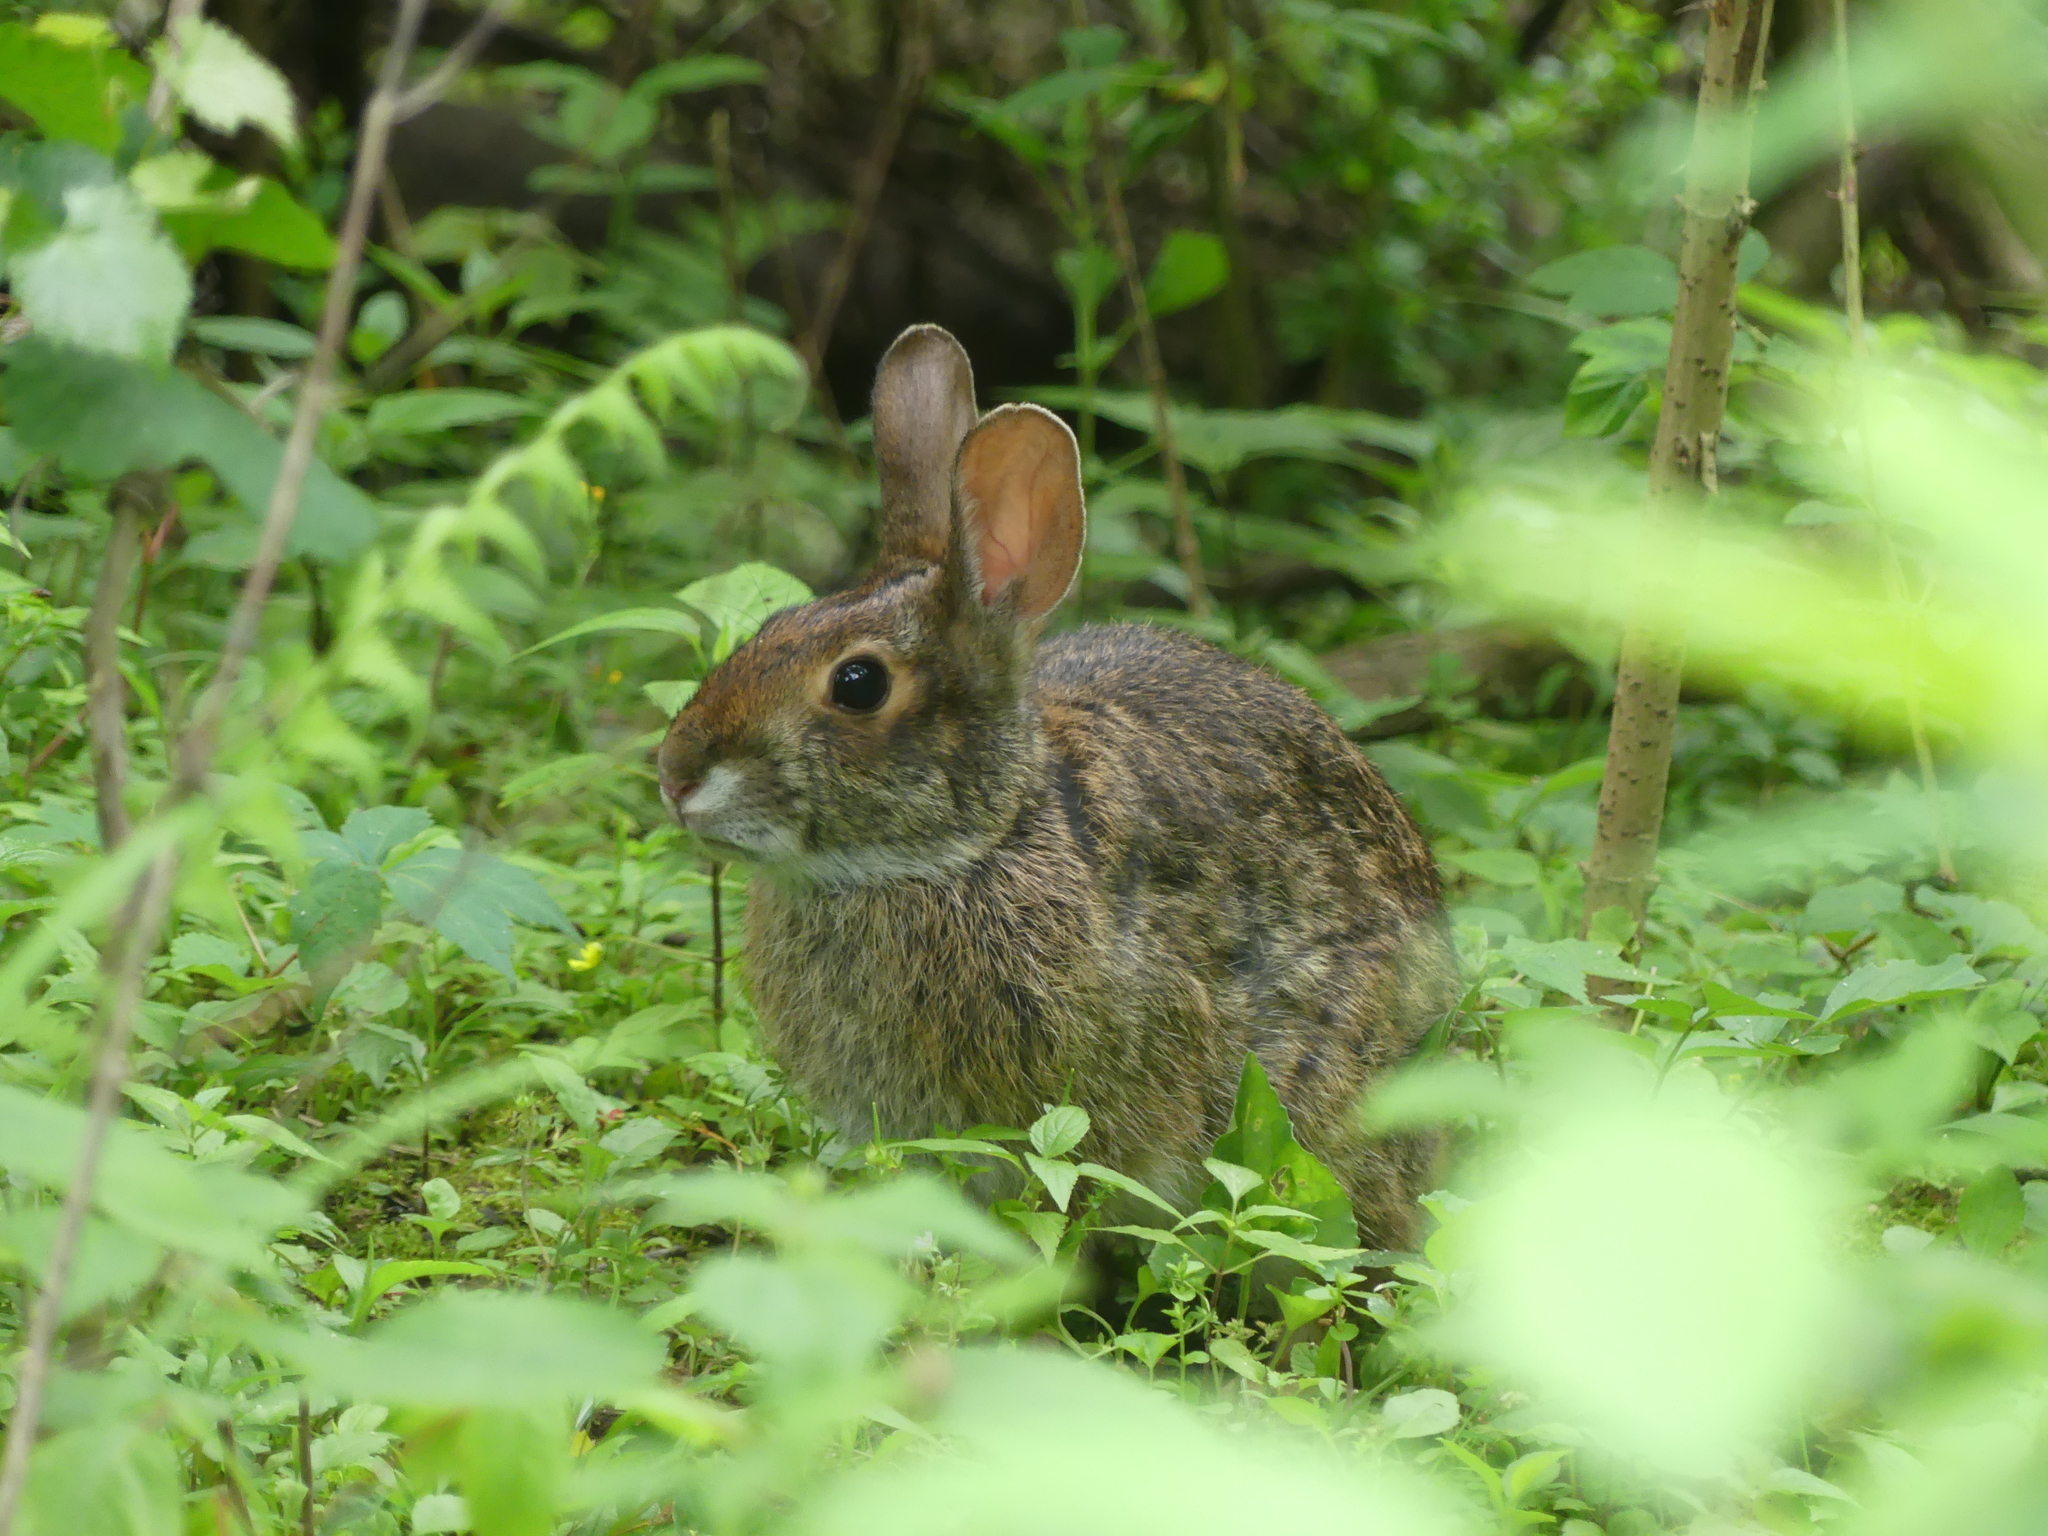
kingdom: Animalia
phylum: Chordata
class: Mammalia
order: Lagomorpha
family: Leporidae
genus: Sylvilagus
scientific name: Sylvilagus aquaticus
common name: Swamp rabbit
